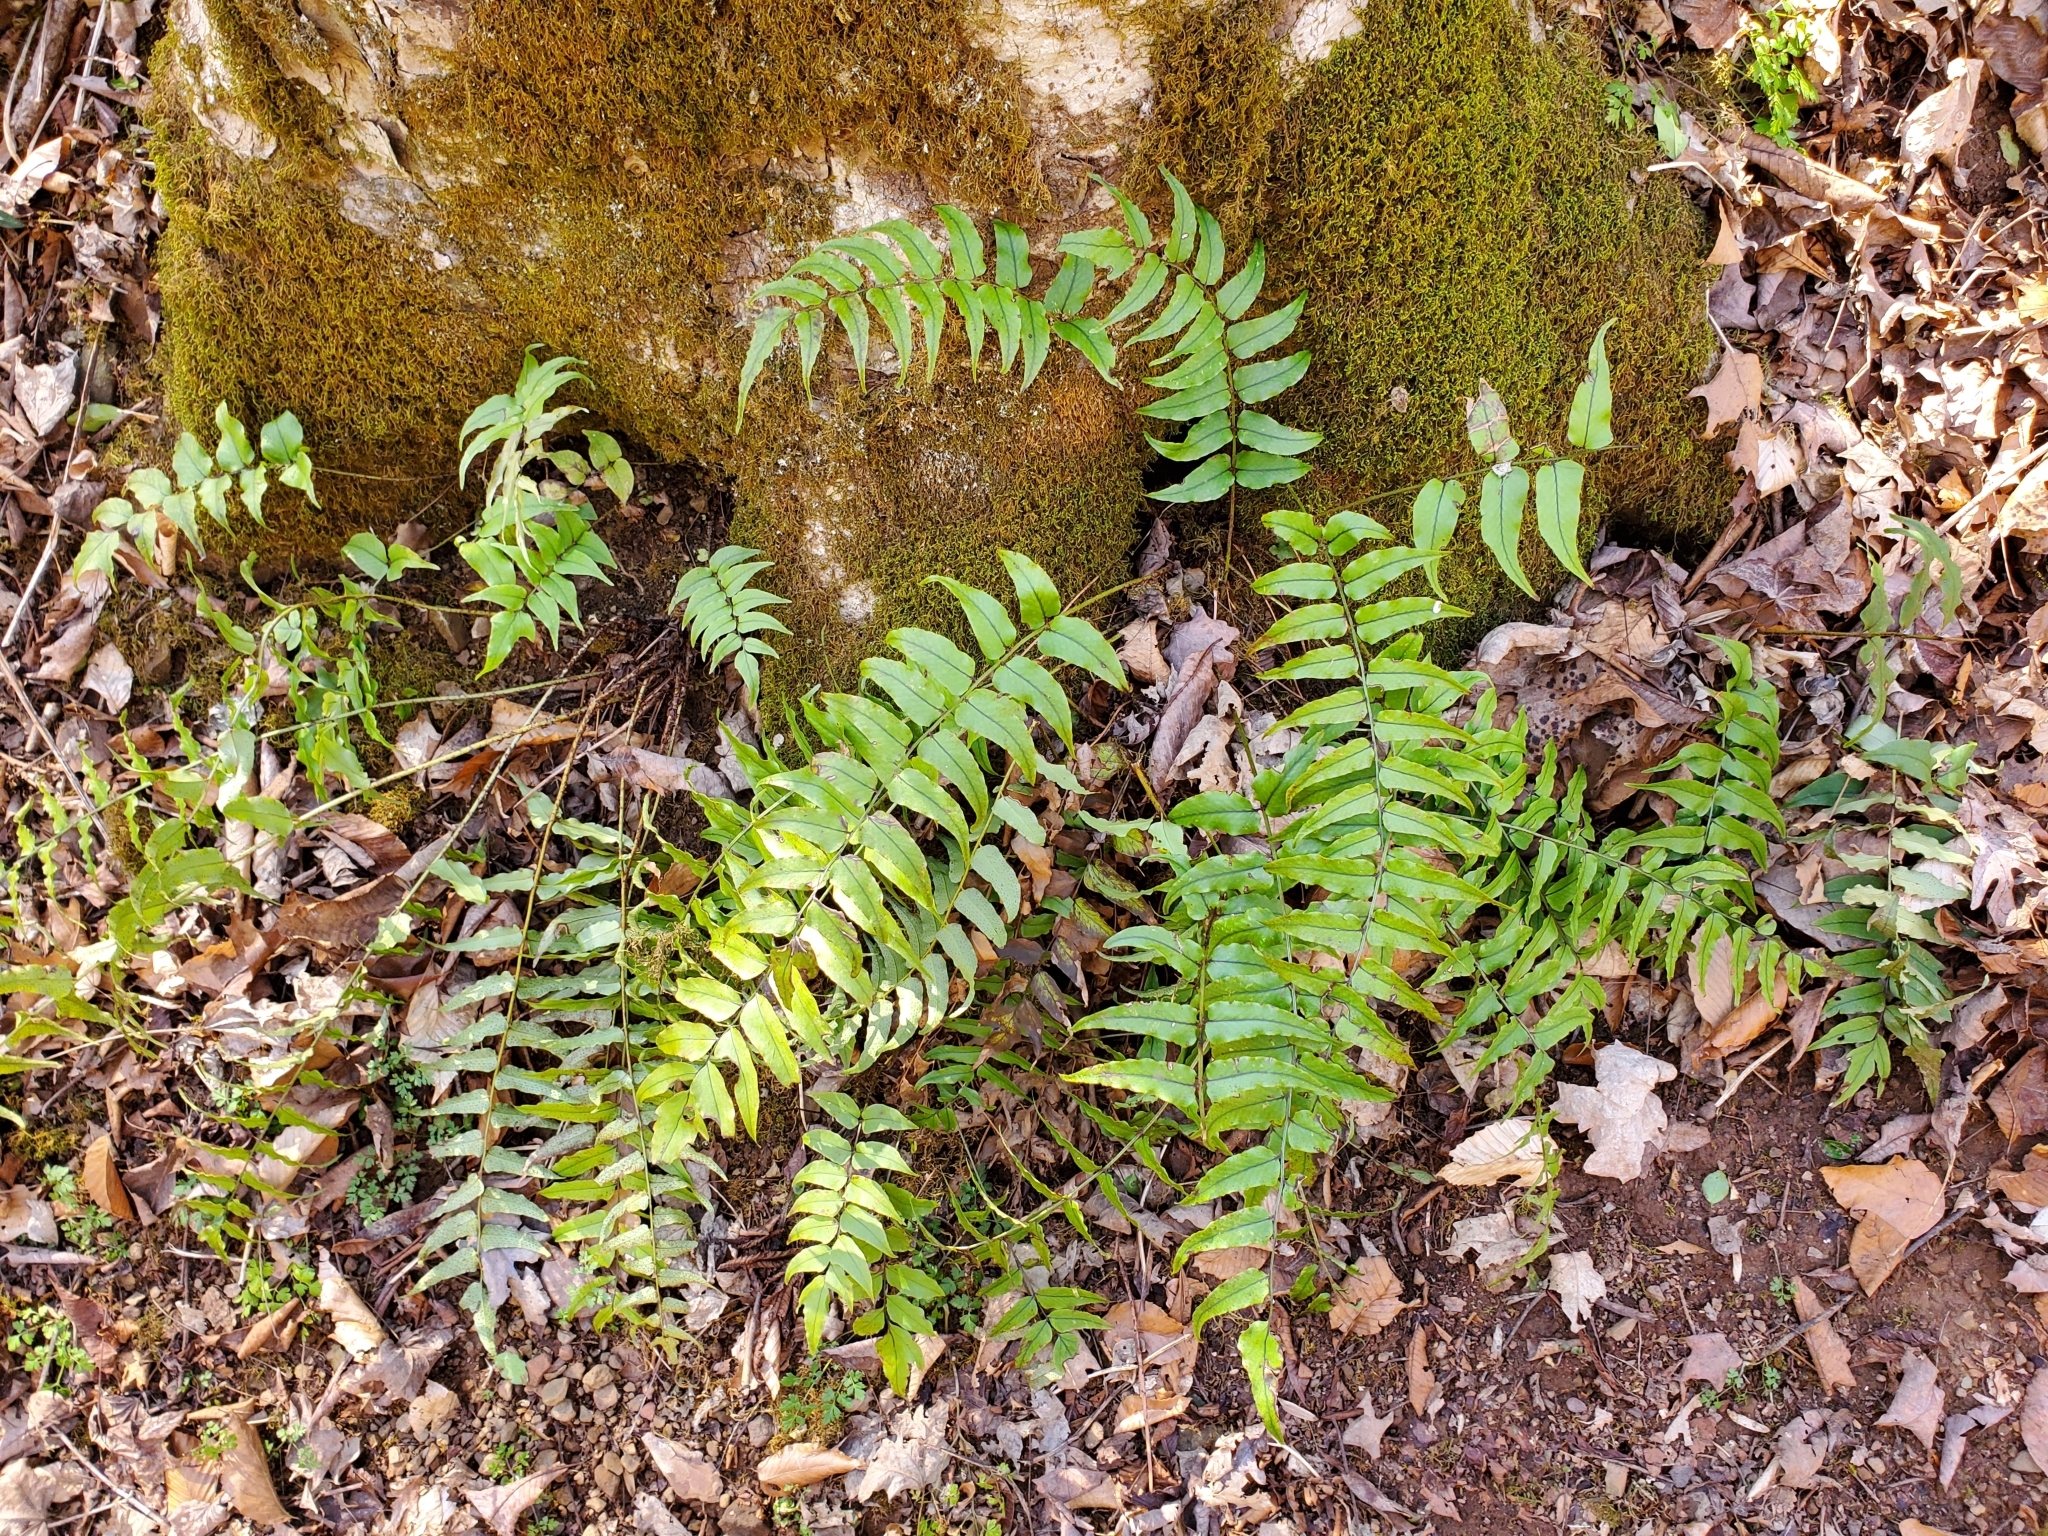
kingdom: Plantae
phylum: Tracheophyta
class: Polypodiopsida
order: Polypodiales
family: Dryopteridaceae
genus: Cyrtomium
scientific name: Cyrtomium fortunei
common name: Asian netvein hollyfern
